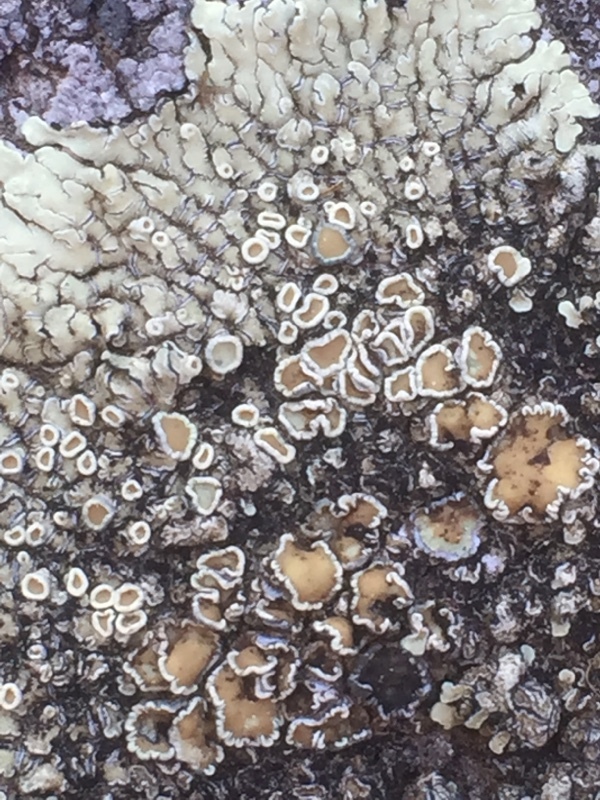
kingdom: Fungi
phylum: Ascomycota
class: Lecanoromycetes
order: Lecanorales
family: Lecanoraceae
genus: Protoparmeliopsis
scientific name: Protoparmeliopsis muralis
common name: Stonewall rim lichen
